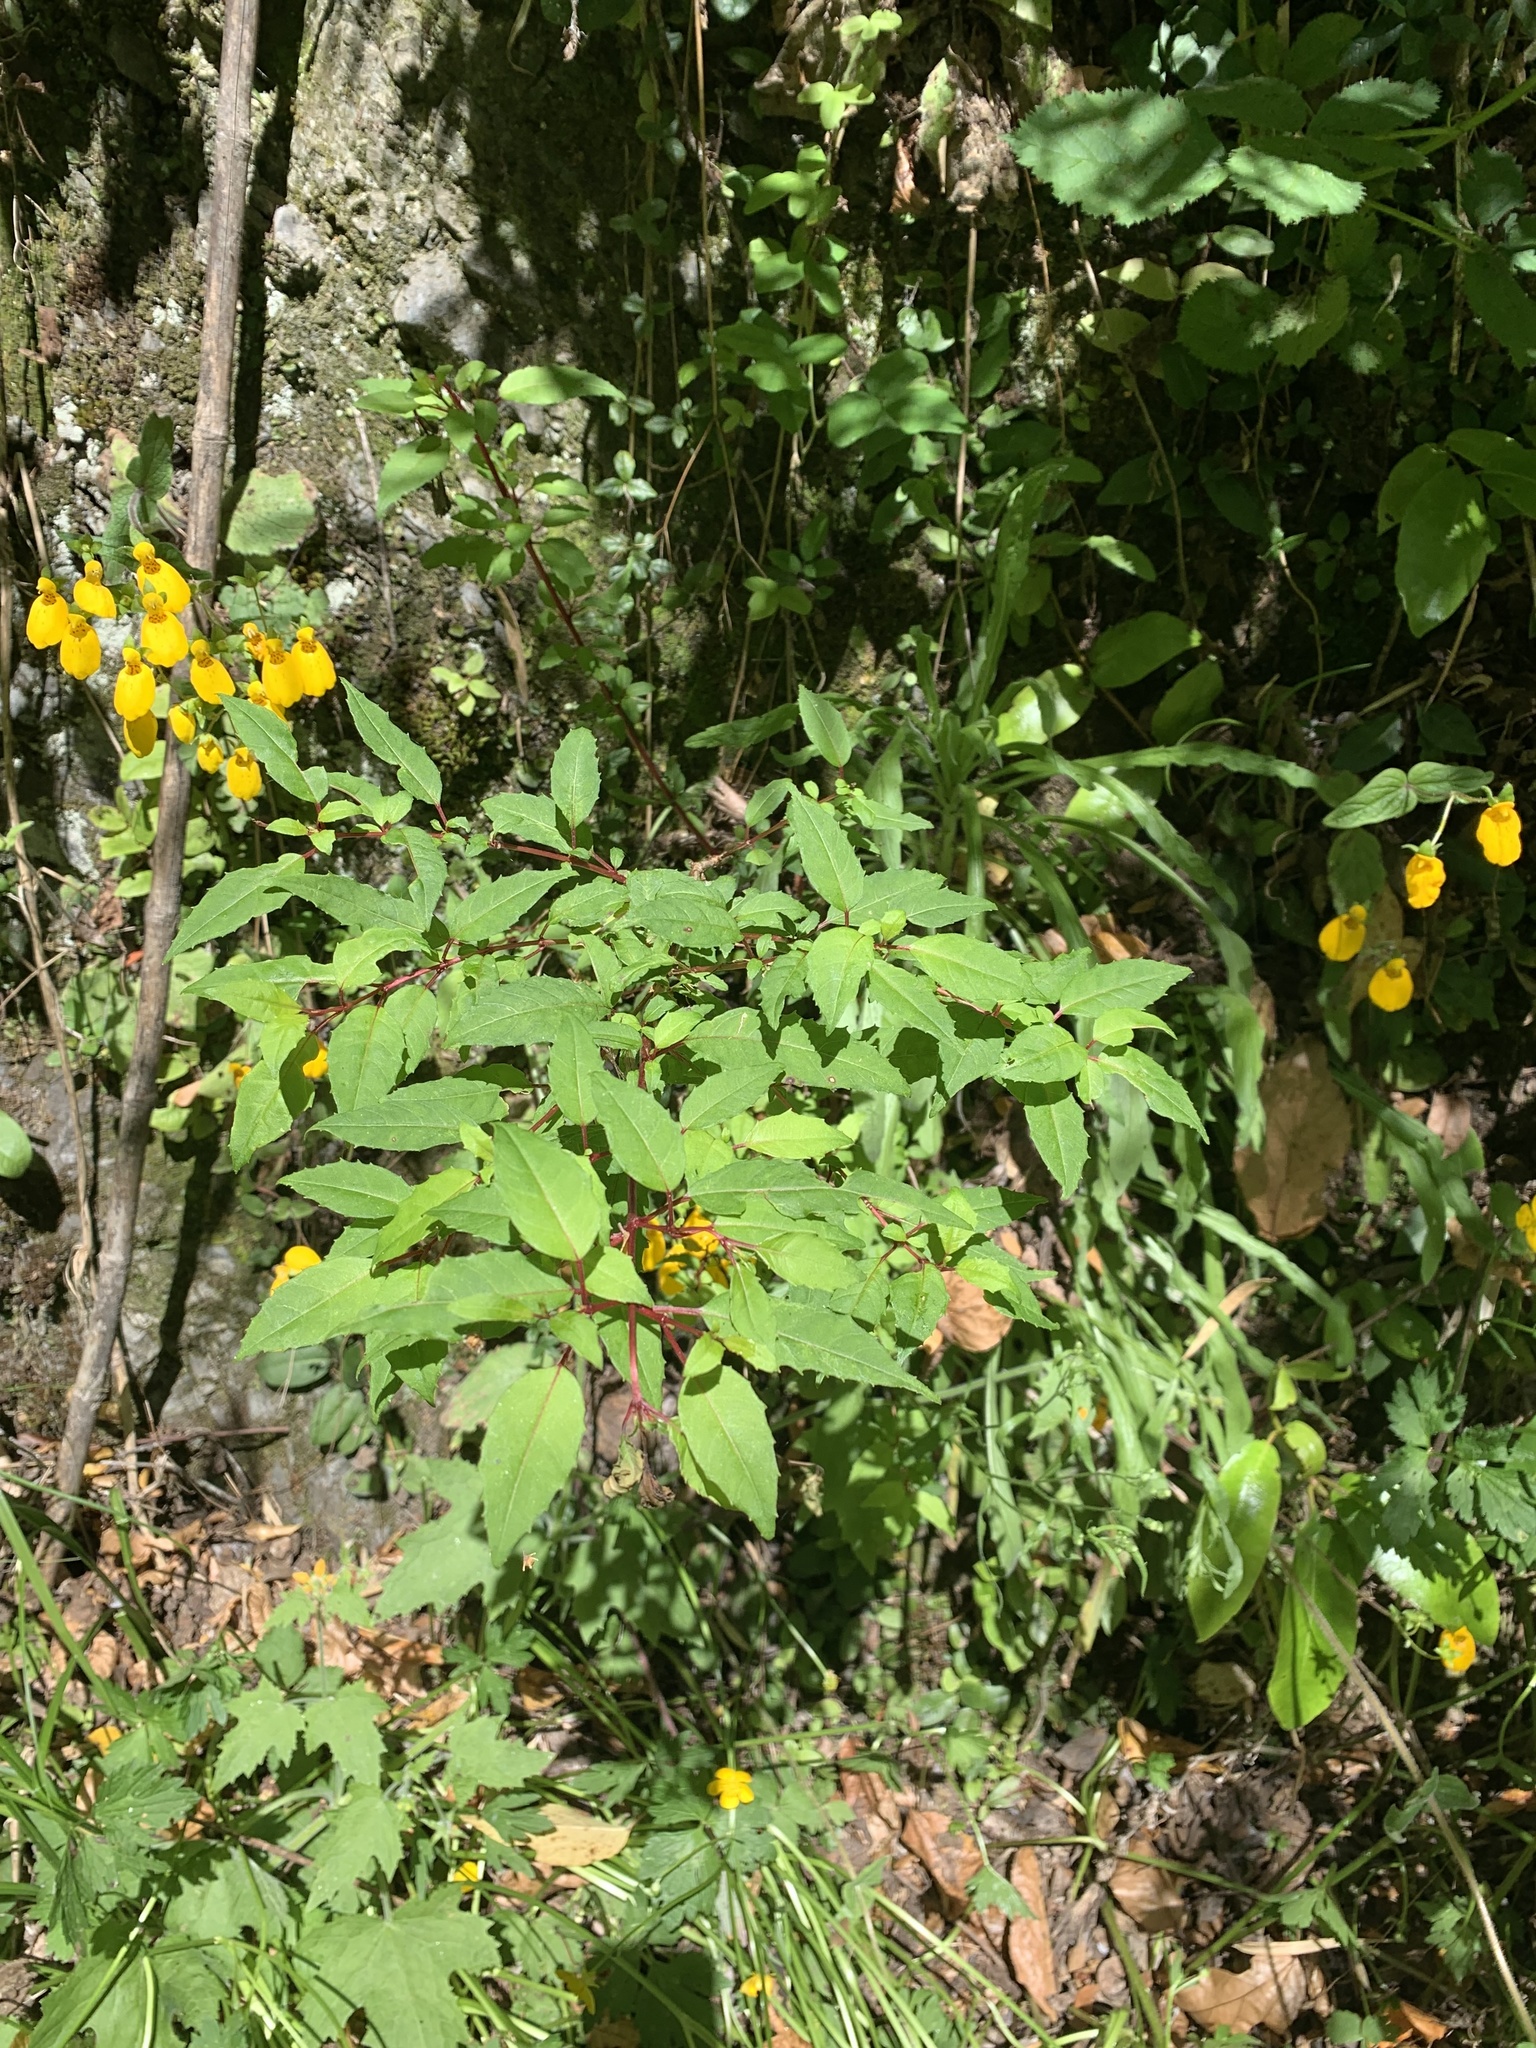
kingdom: Plantae
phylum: Tracheophyta
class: Magnoliopsida
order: Myrtales
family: Onagraceae
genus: Fuchsia
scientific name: Fuchsia magellanica
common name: Hardy fuchsia
